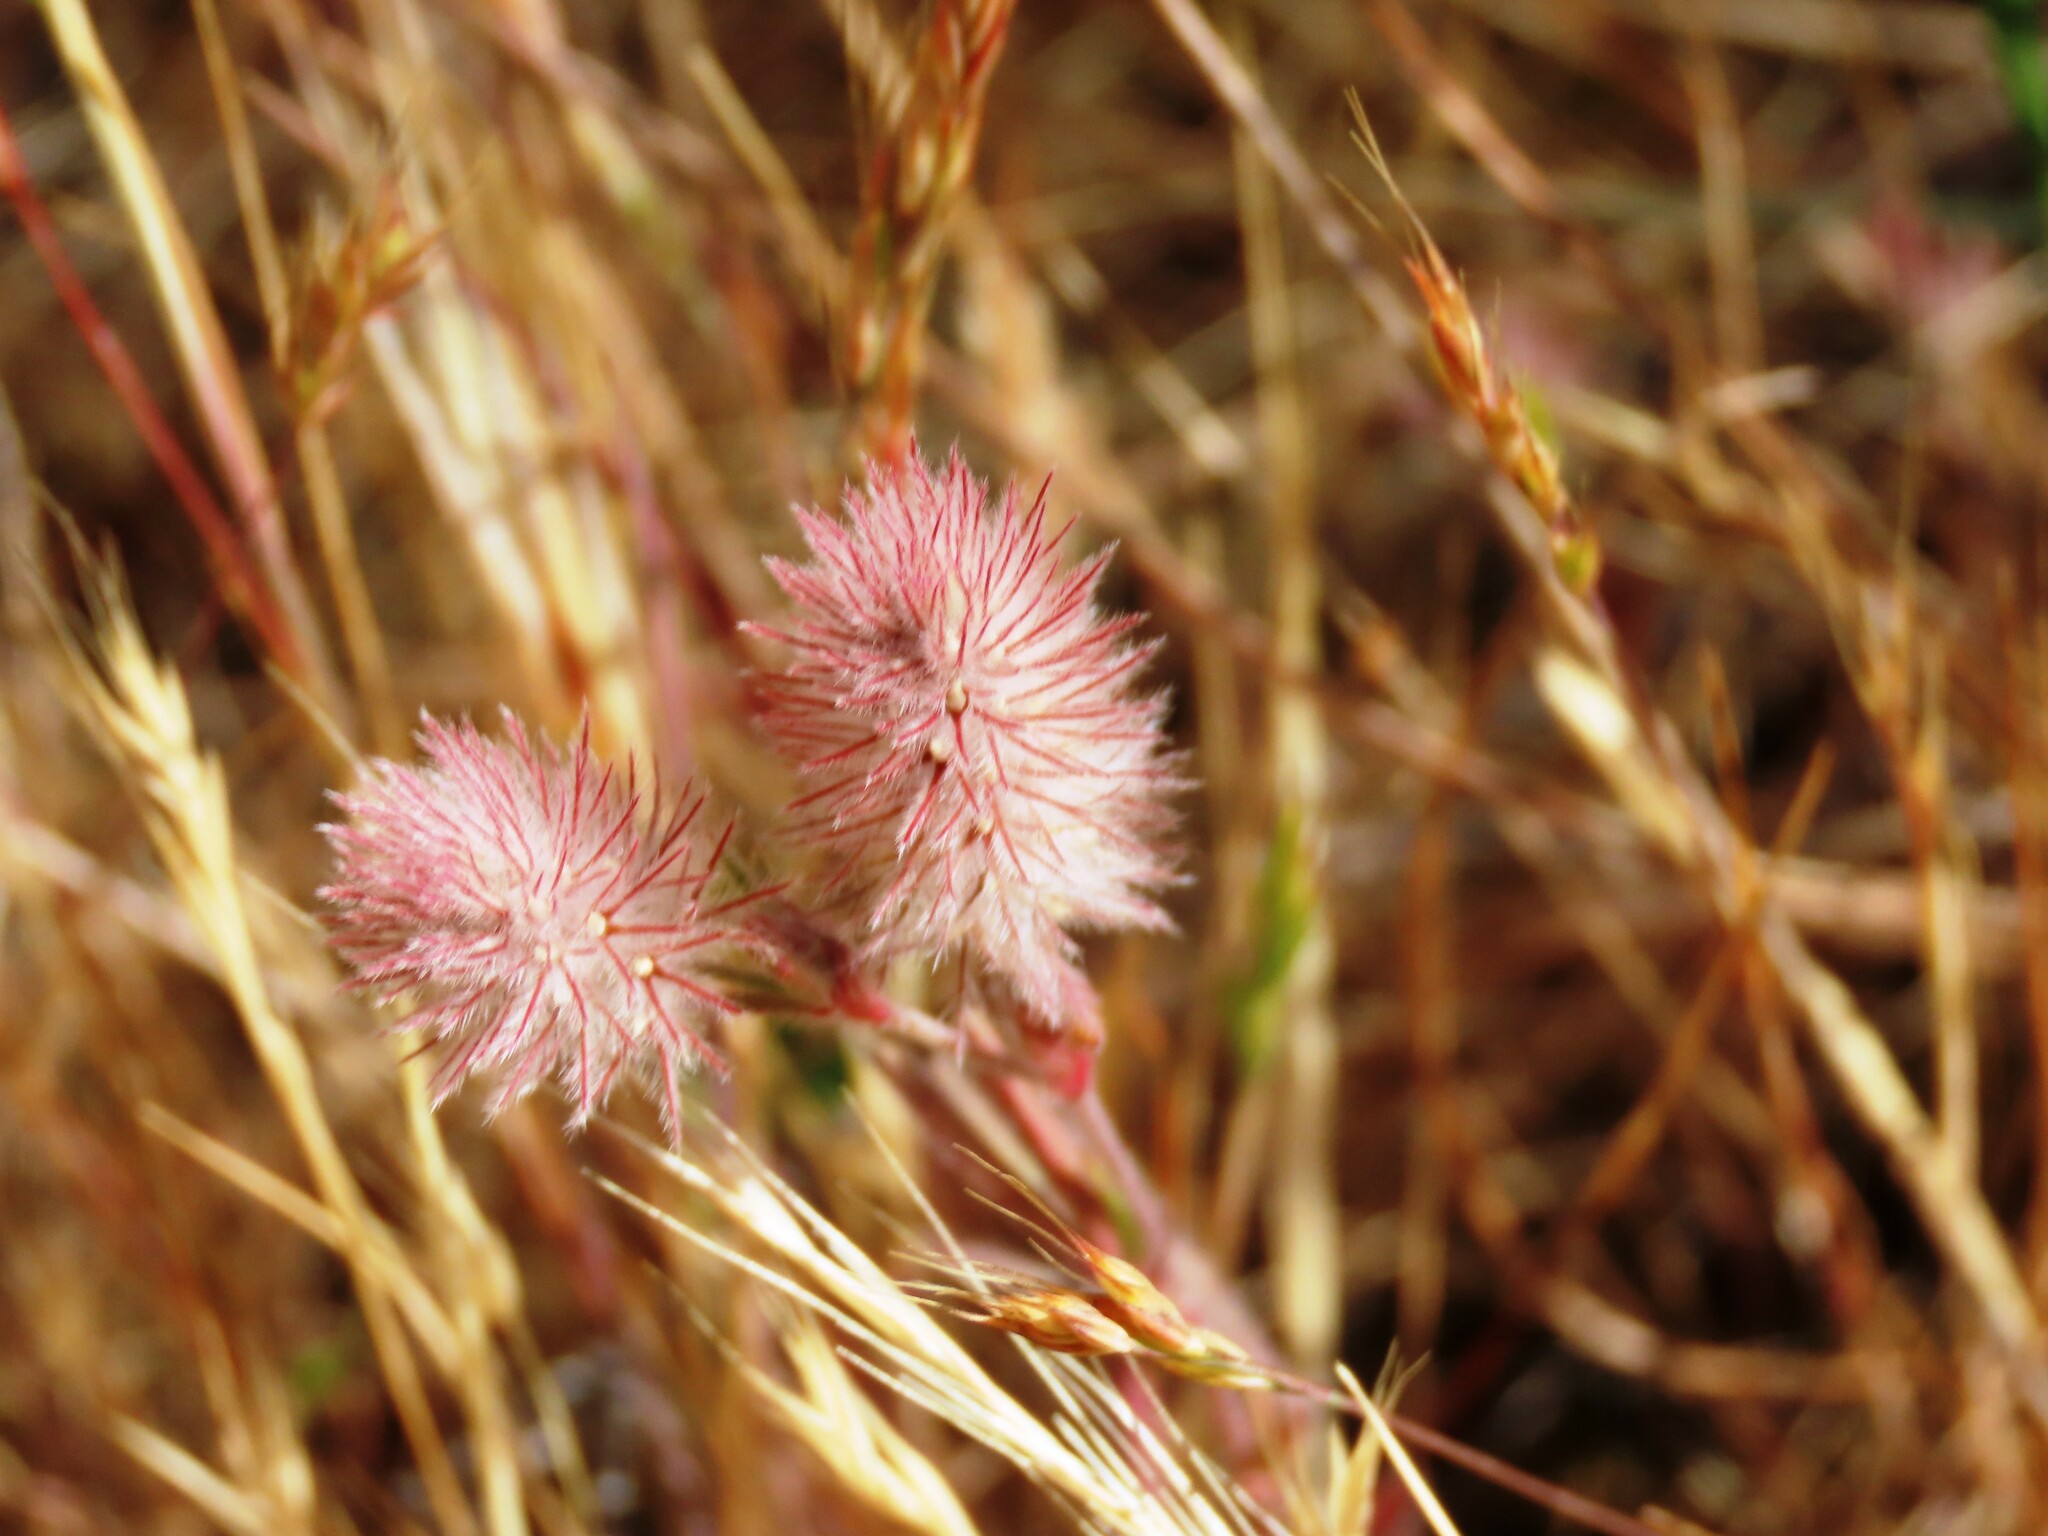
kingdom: Plantae
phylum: Tracheophyta
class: Magnoliopsida
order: Fabales
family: Fabaceae
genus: Trifolium
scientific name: Trifolium arvense
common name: Hare's-foot clover
